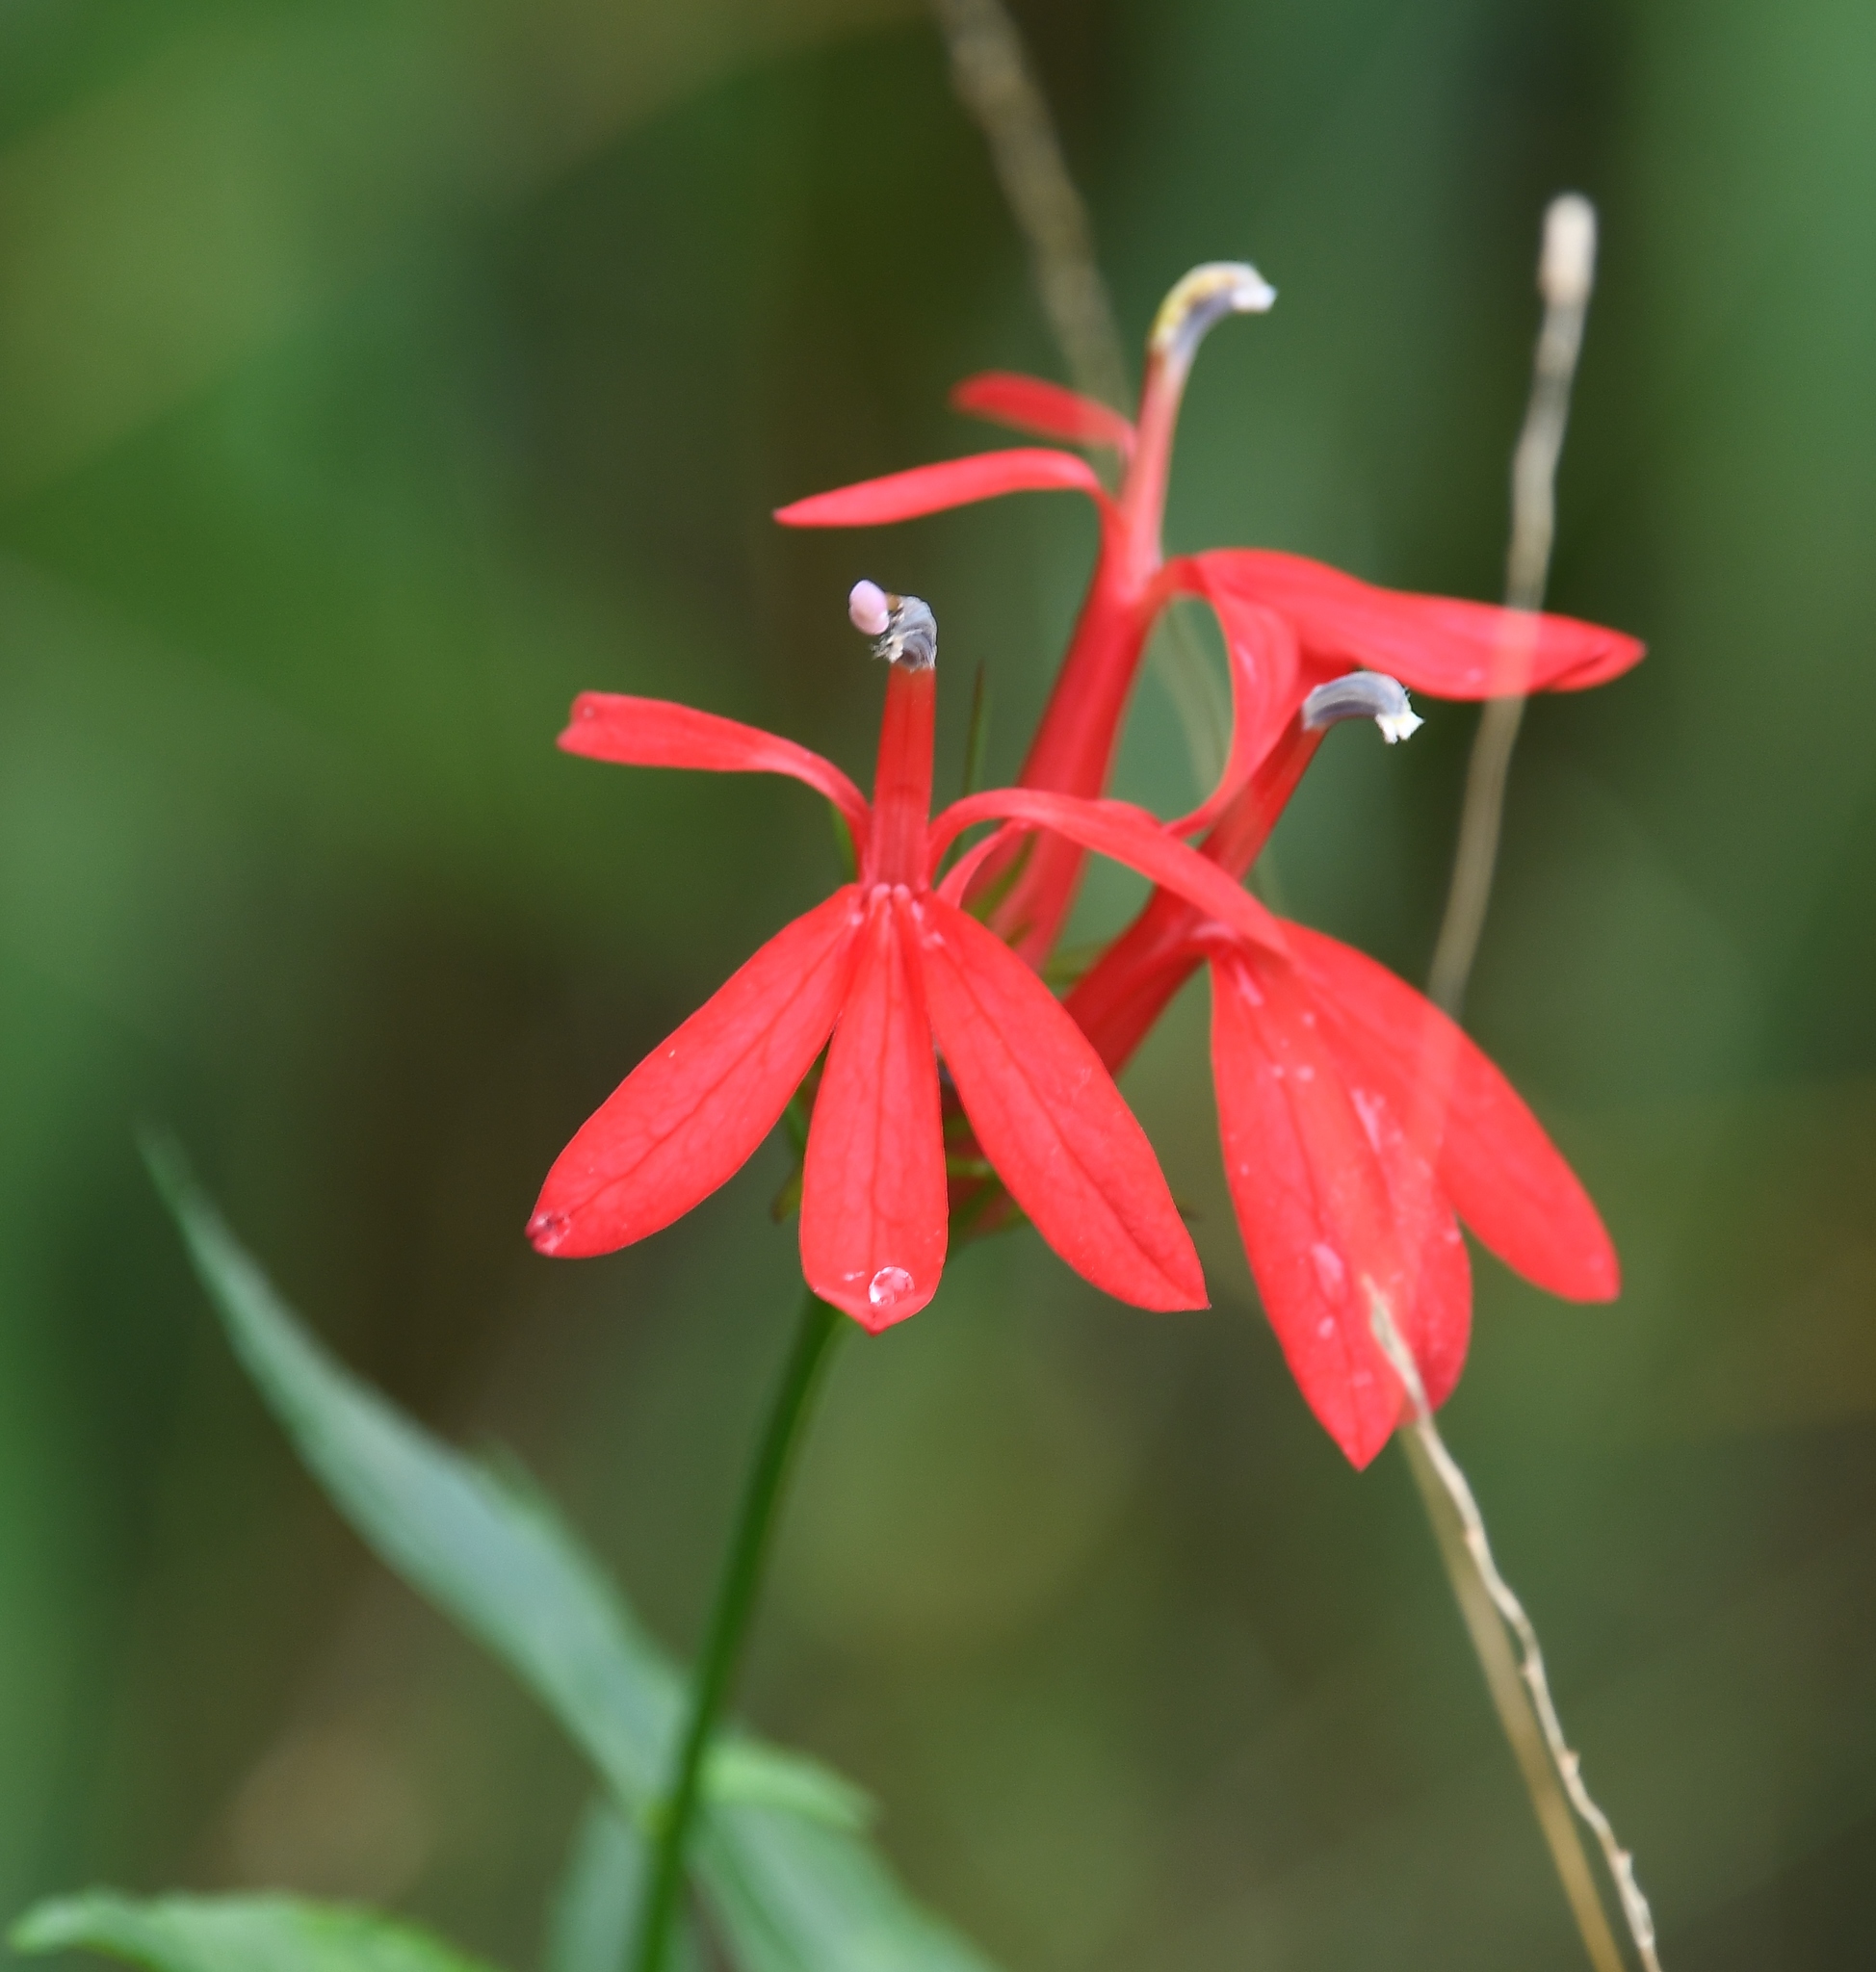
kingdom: Plantae
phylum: Tracheophyta
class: Magnoliopsida
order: Asterales
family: Campanulaceae
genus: Lobelia
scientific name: Lobelia cardinalis
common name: Cardinal flower
